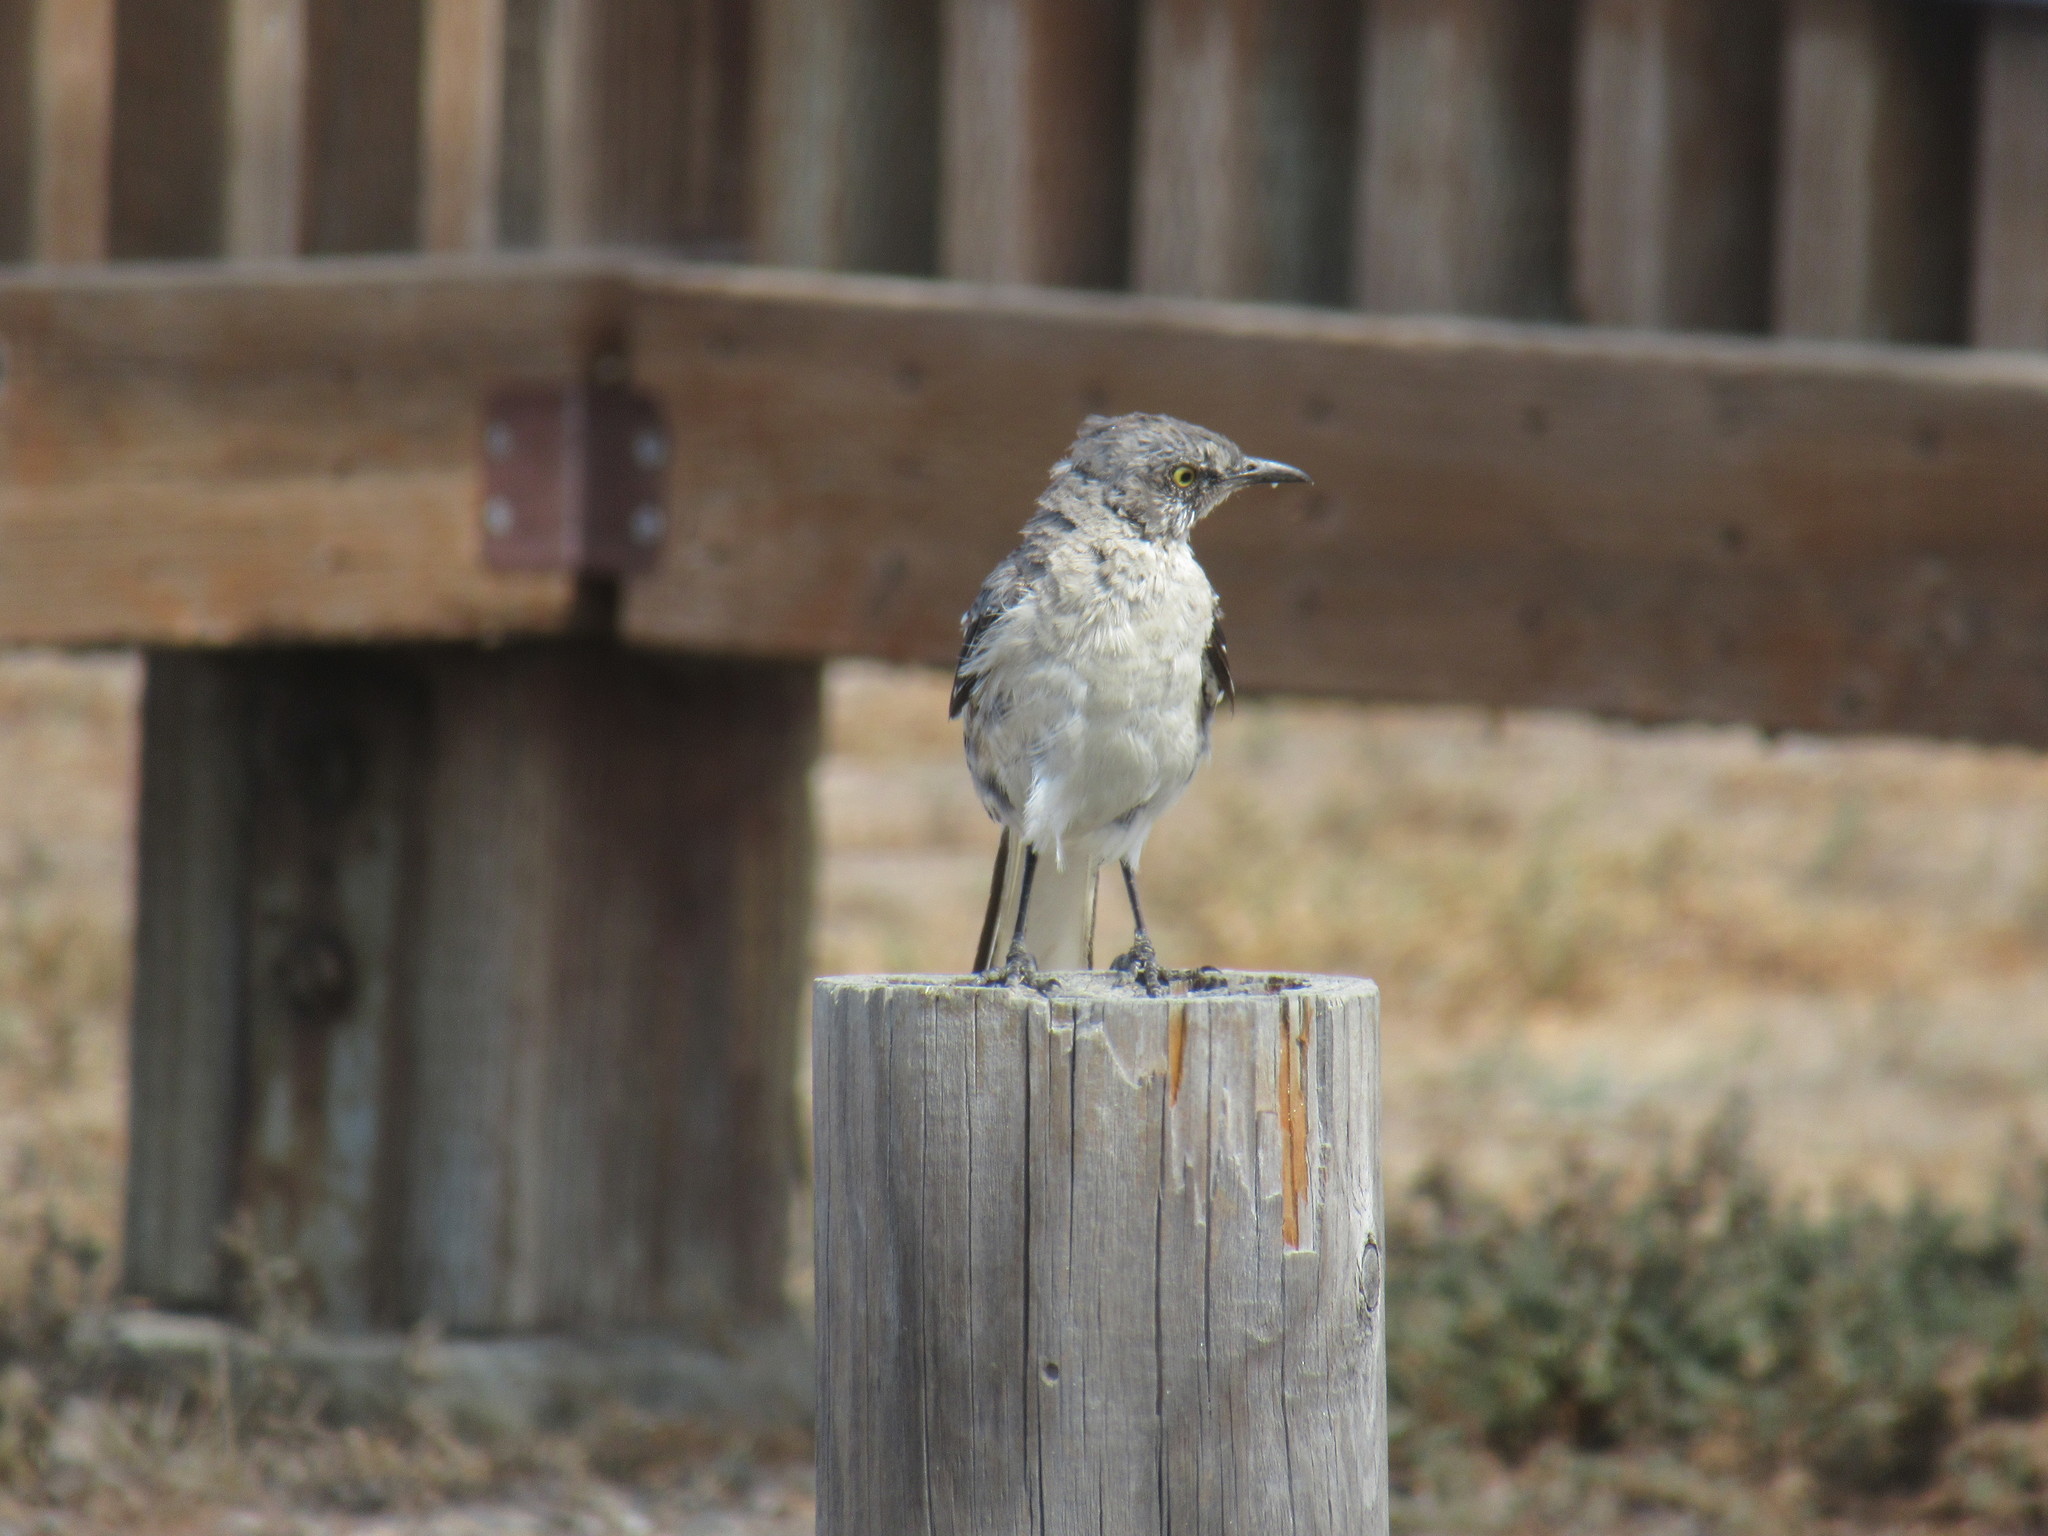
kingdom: Animalia
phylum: Chordata
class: Aves
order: Passeriformes
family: Mimidae
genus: Mimus
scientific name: Mimus polyglottos
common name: Northern mockingbird
